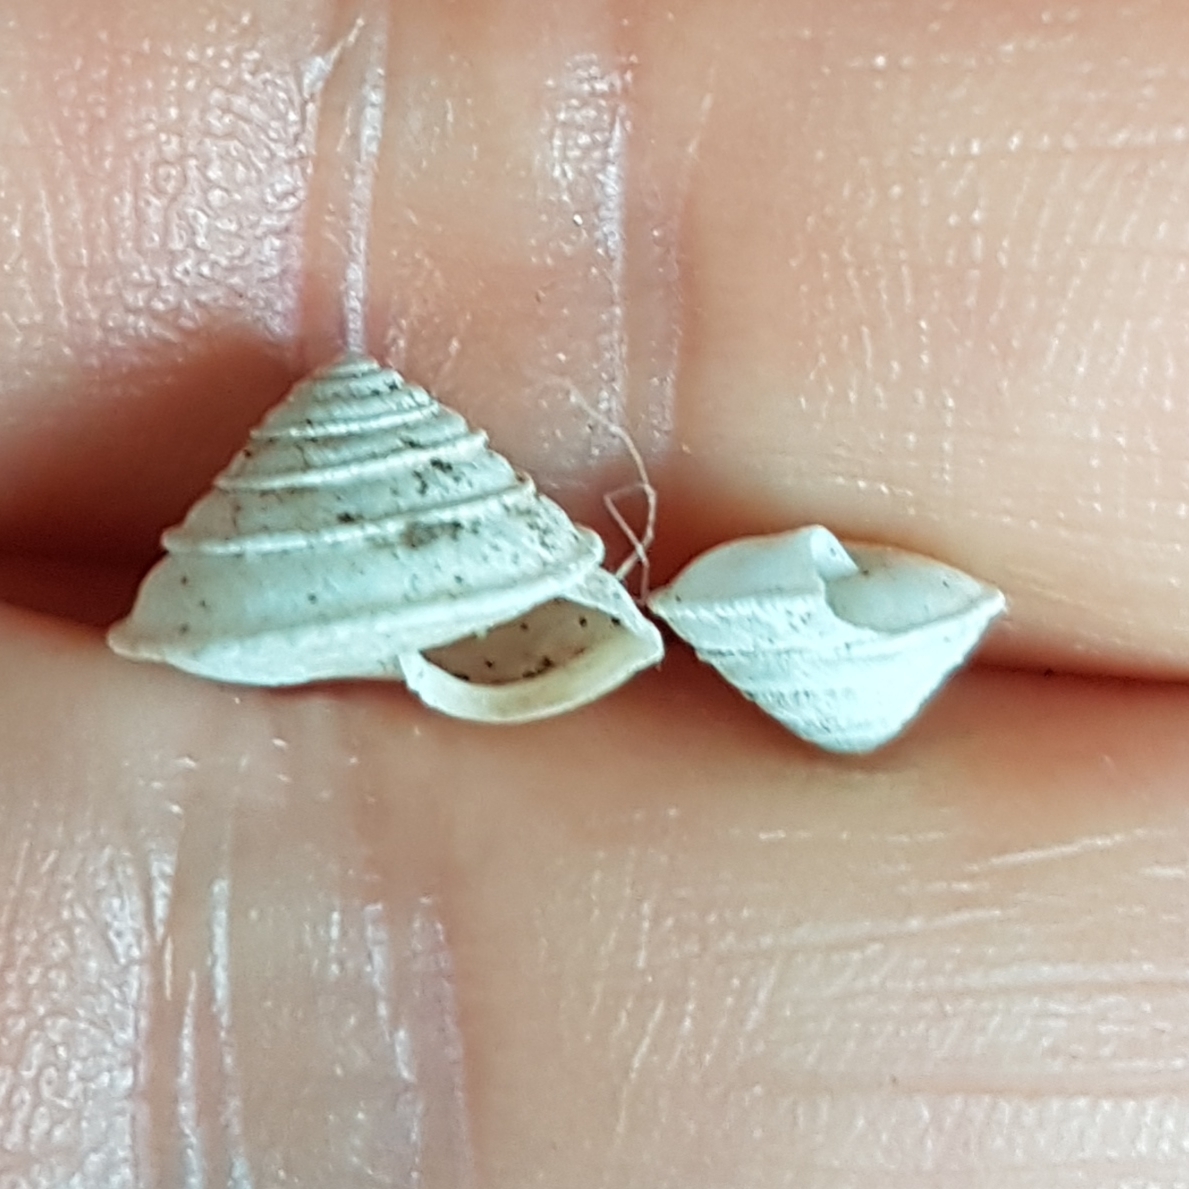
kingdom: Animalia
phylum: Mollusca
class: Gastropoda
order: Stylommatophora
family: Geomitridae
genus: Trochoidea
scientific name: Trochoidea elegans
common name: Elegant helicellid
